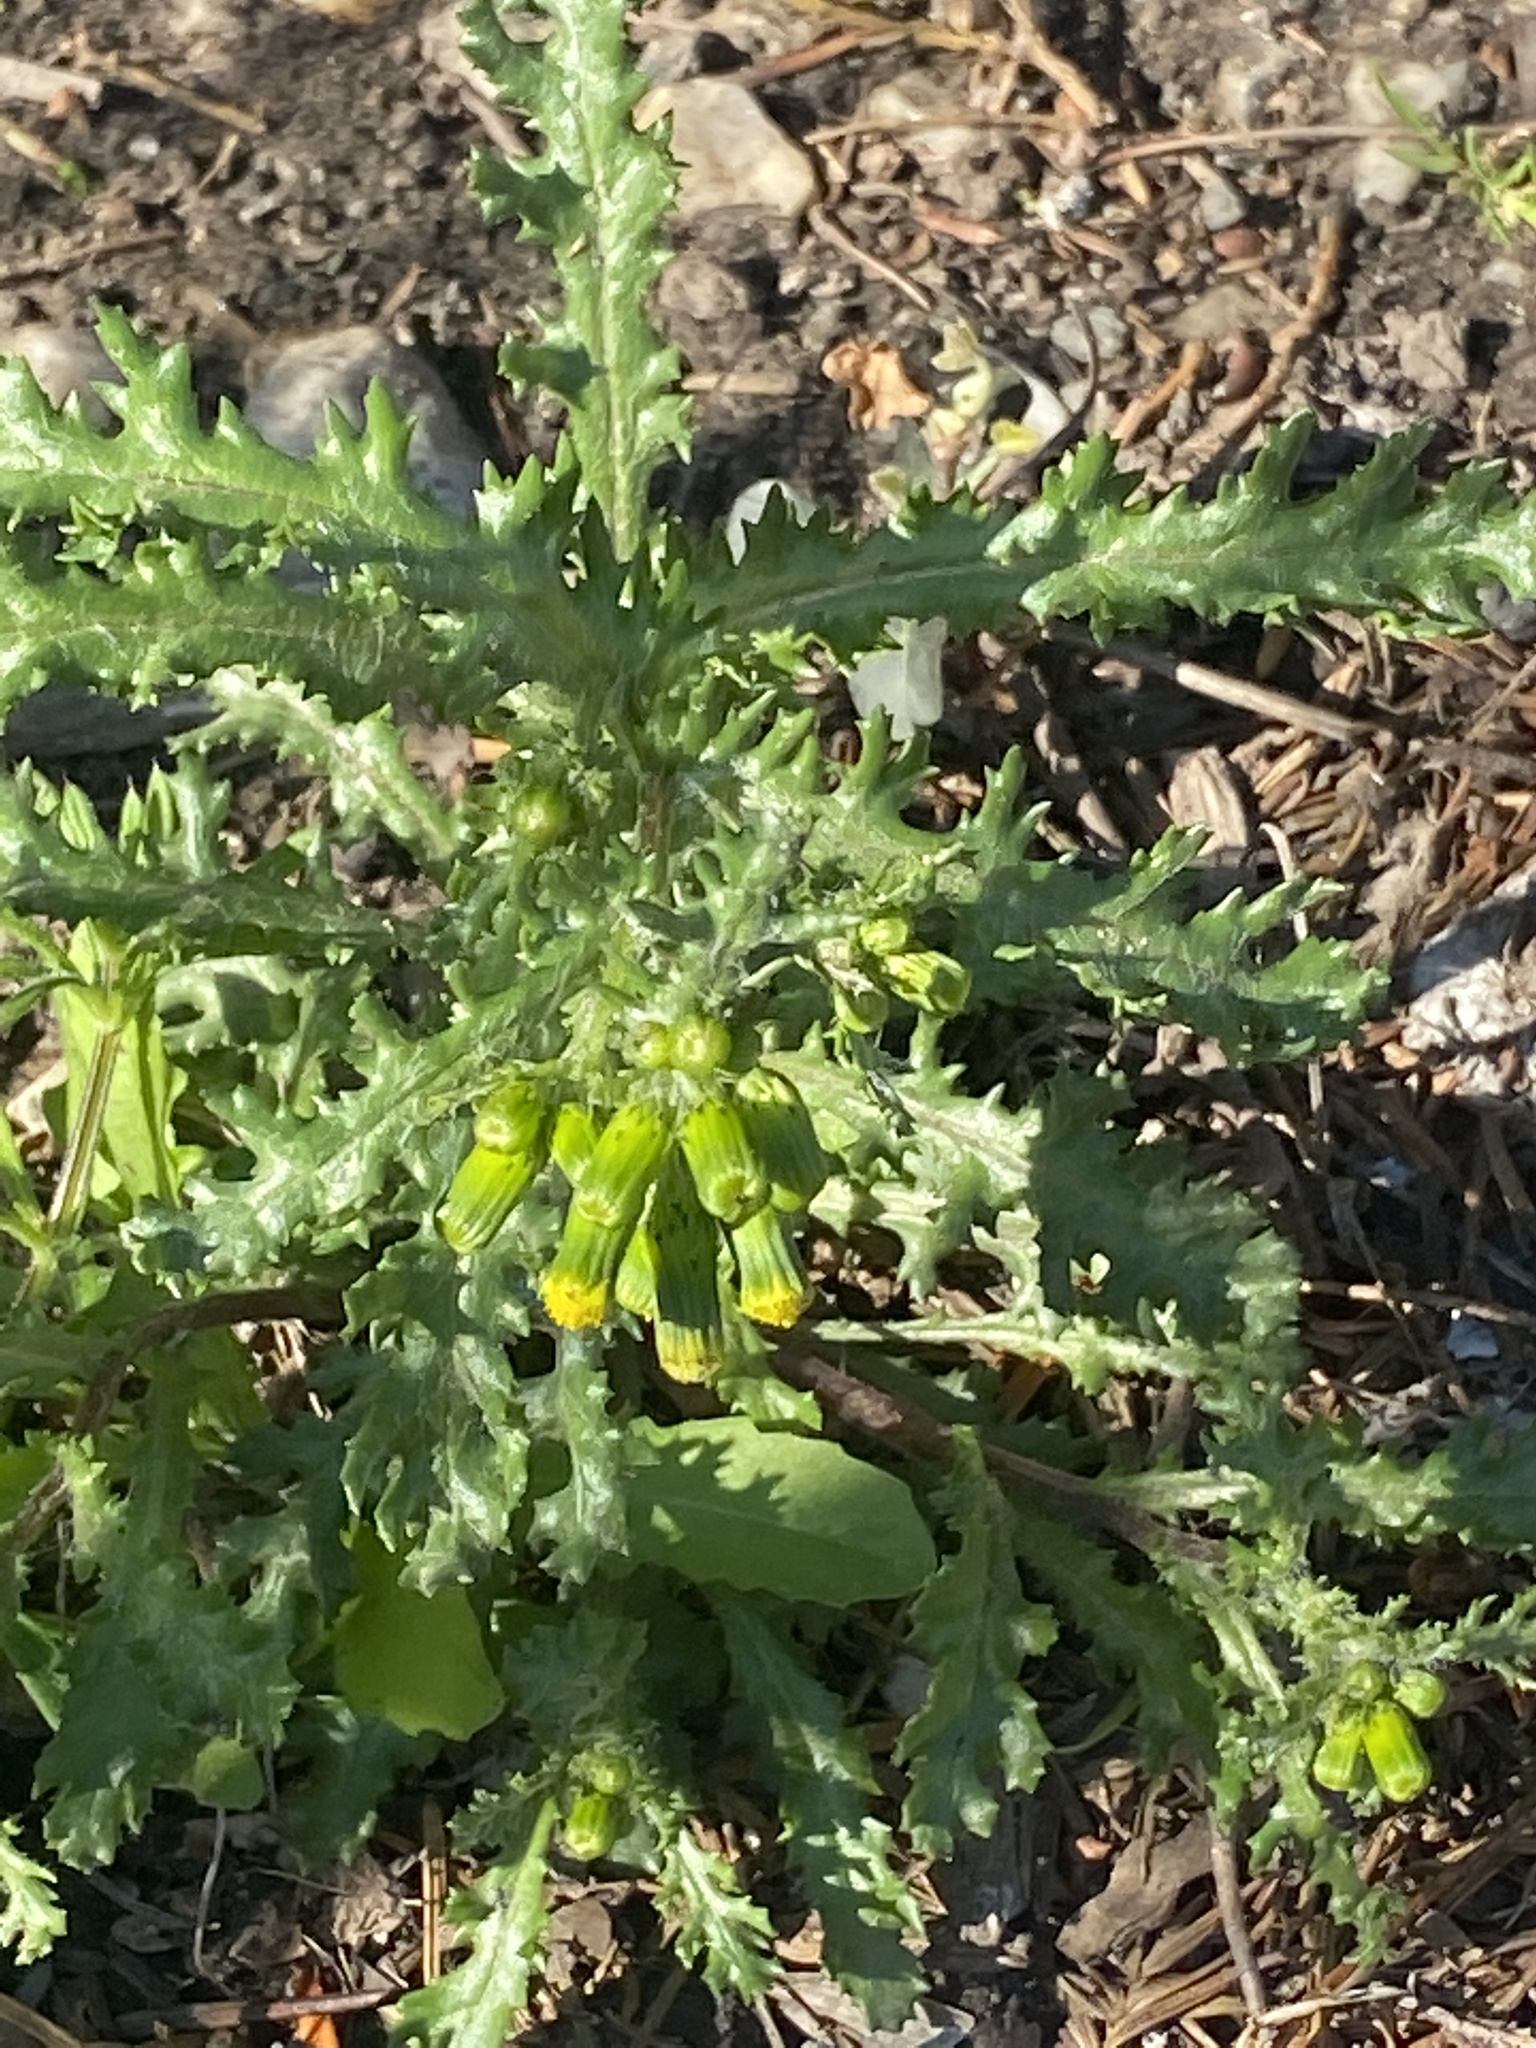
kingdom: Plantae
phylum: Tracheophyta
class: Magnoliopsida
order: Asterales
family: Asteraceae
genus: Senecio
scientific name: Senecio vulgaris
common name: Old-man-in-the-spring
